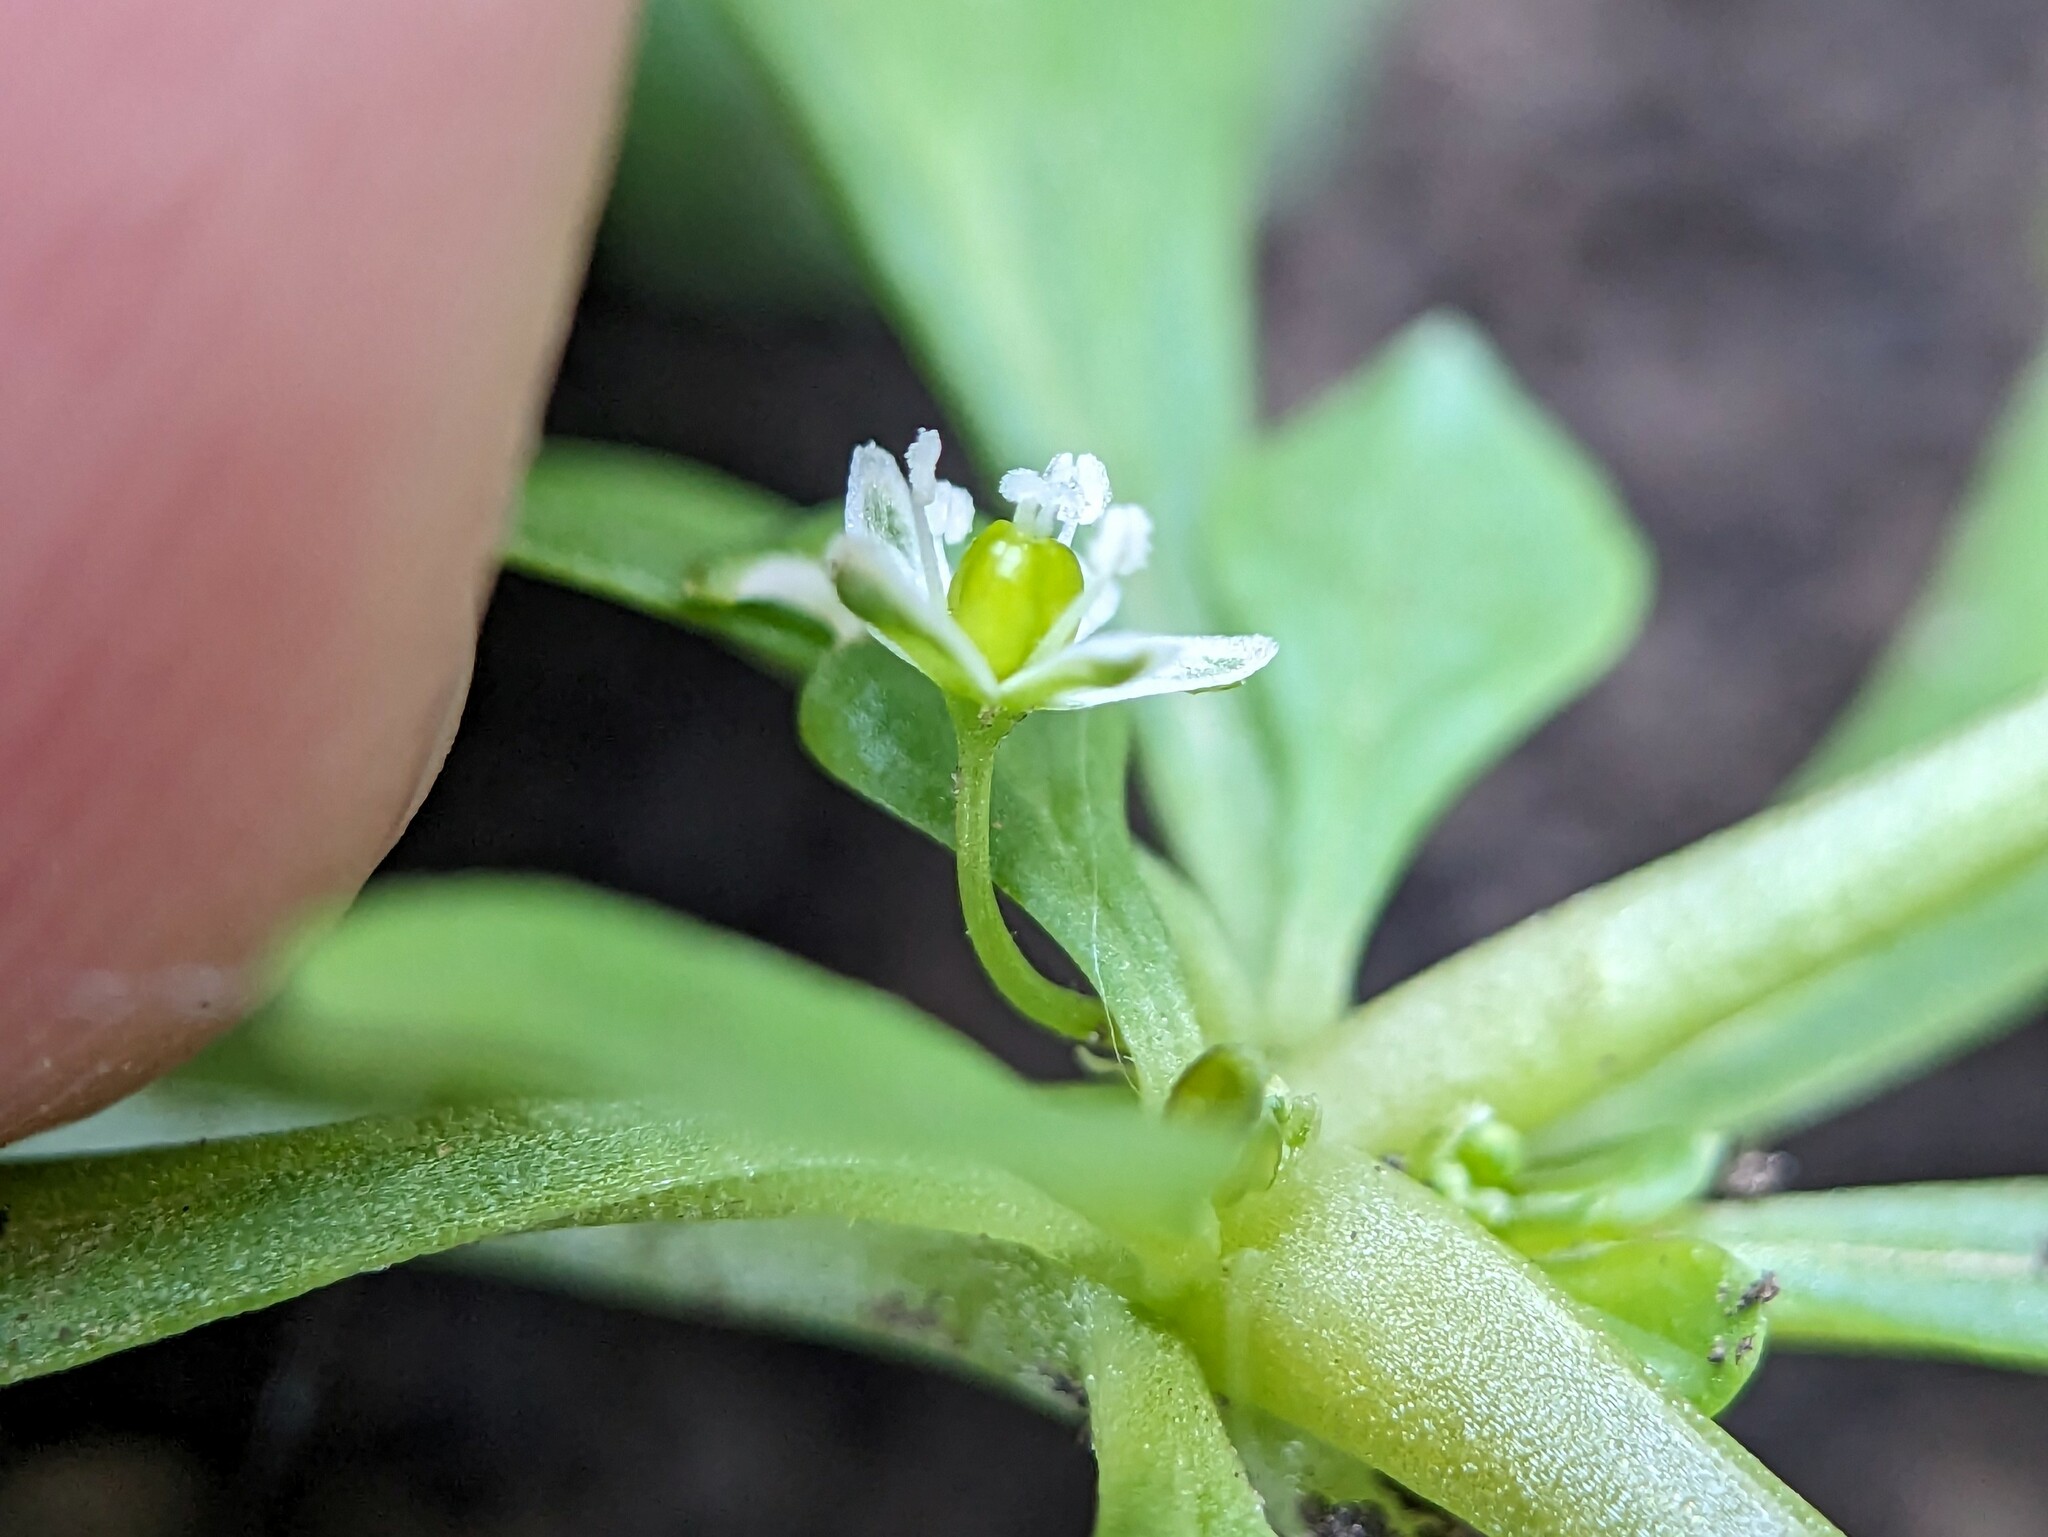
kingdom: Plantae
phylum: Tracheophyta
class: Magnoliopsida
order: Caryophyllales
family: Molluginaceae
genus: Mollugo
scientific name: Mollugo verticillata
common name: Green carpetweed
